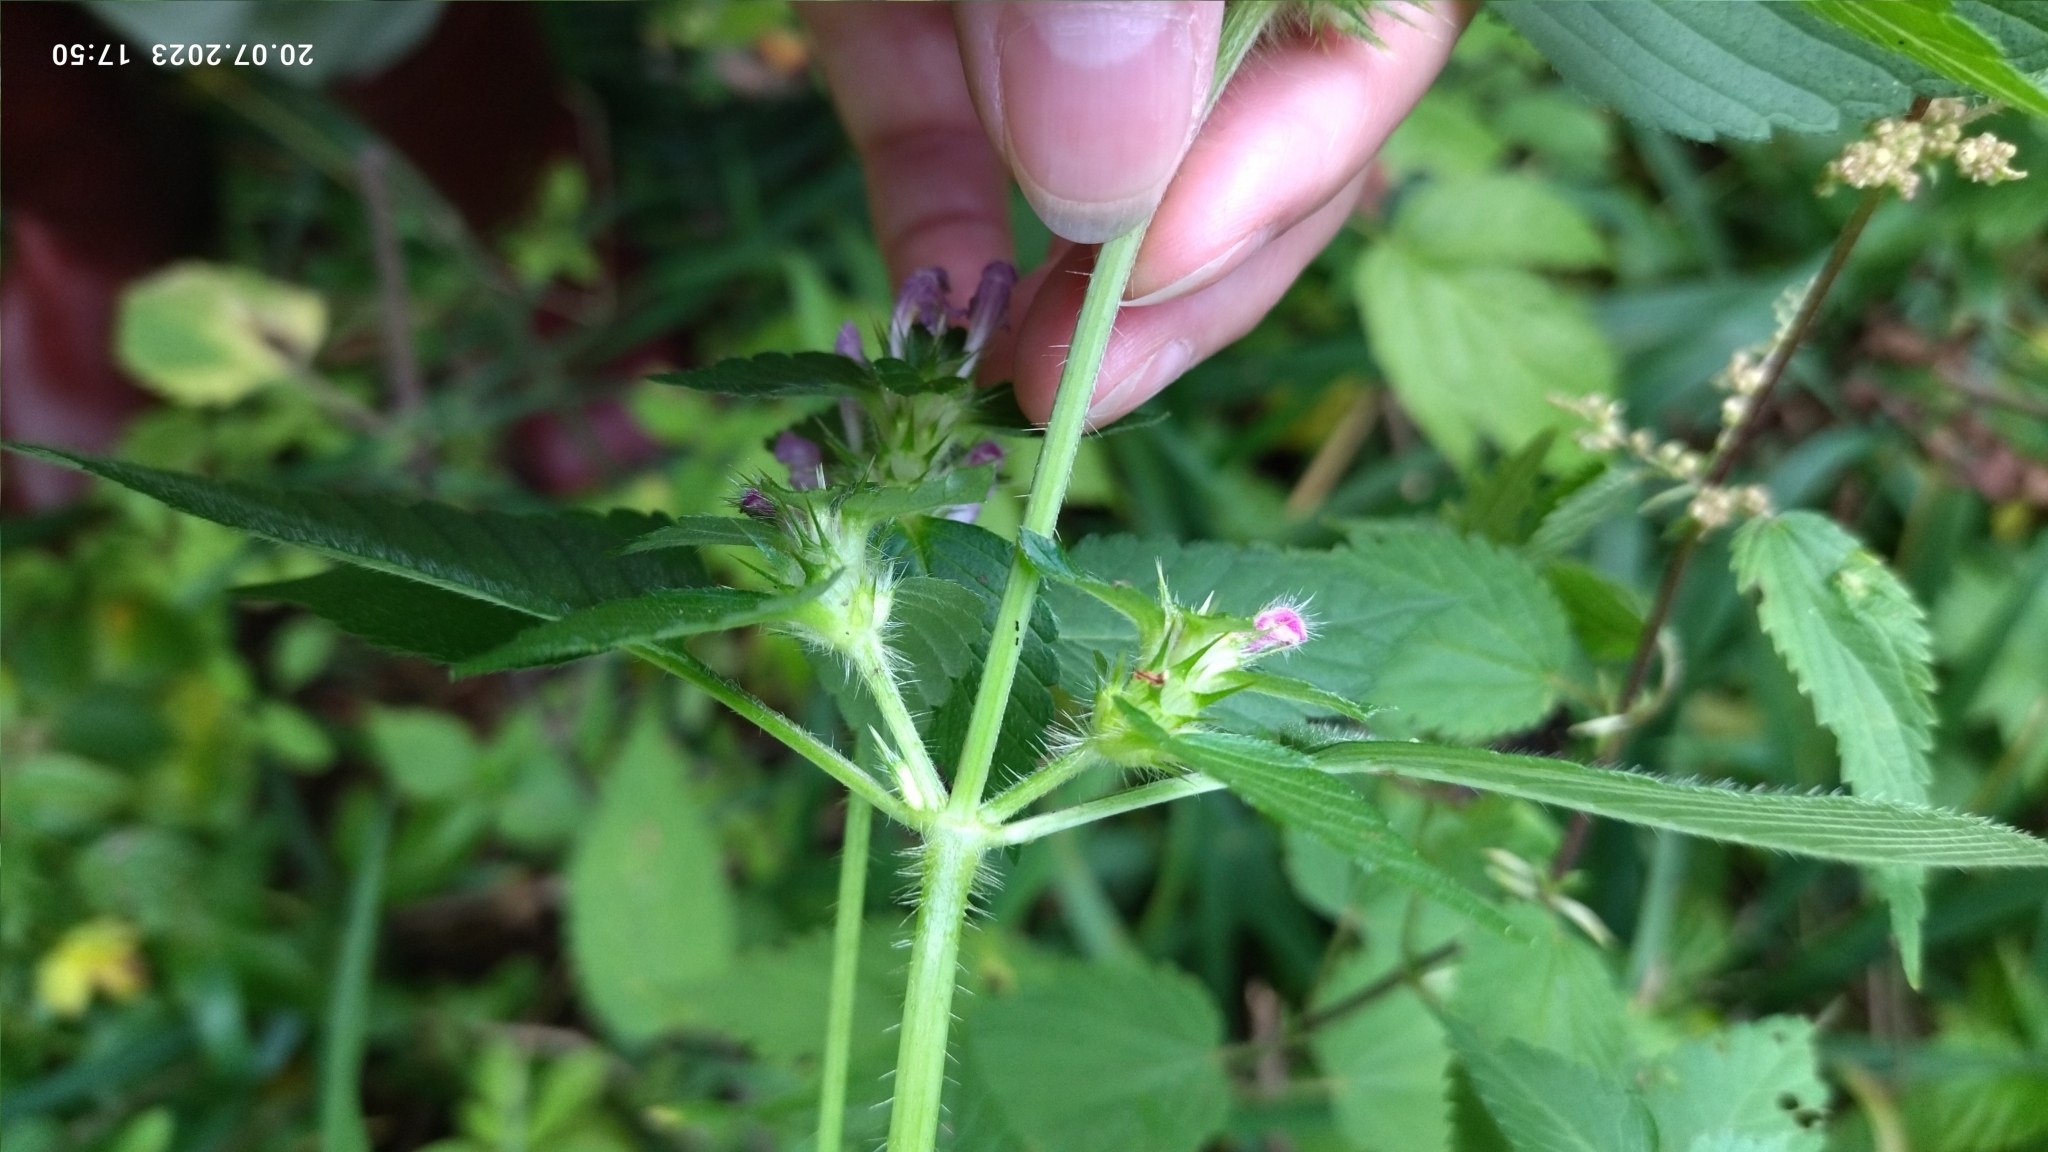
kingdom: Plantae
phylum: Tracheophyta
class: Magnoliopsida
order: Lamiales
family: Lamiaceae
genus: Galeopsis
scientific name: Galeopsis tetrahit
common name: Common hemp-nettle
